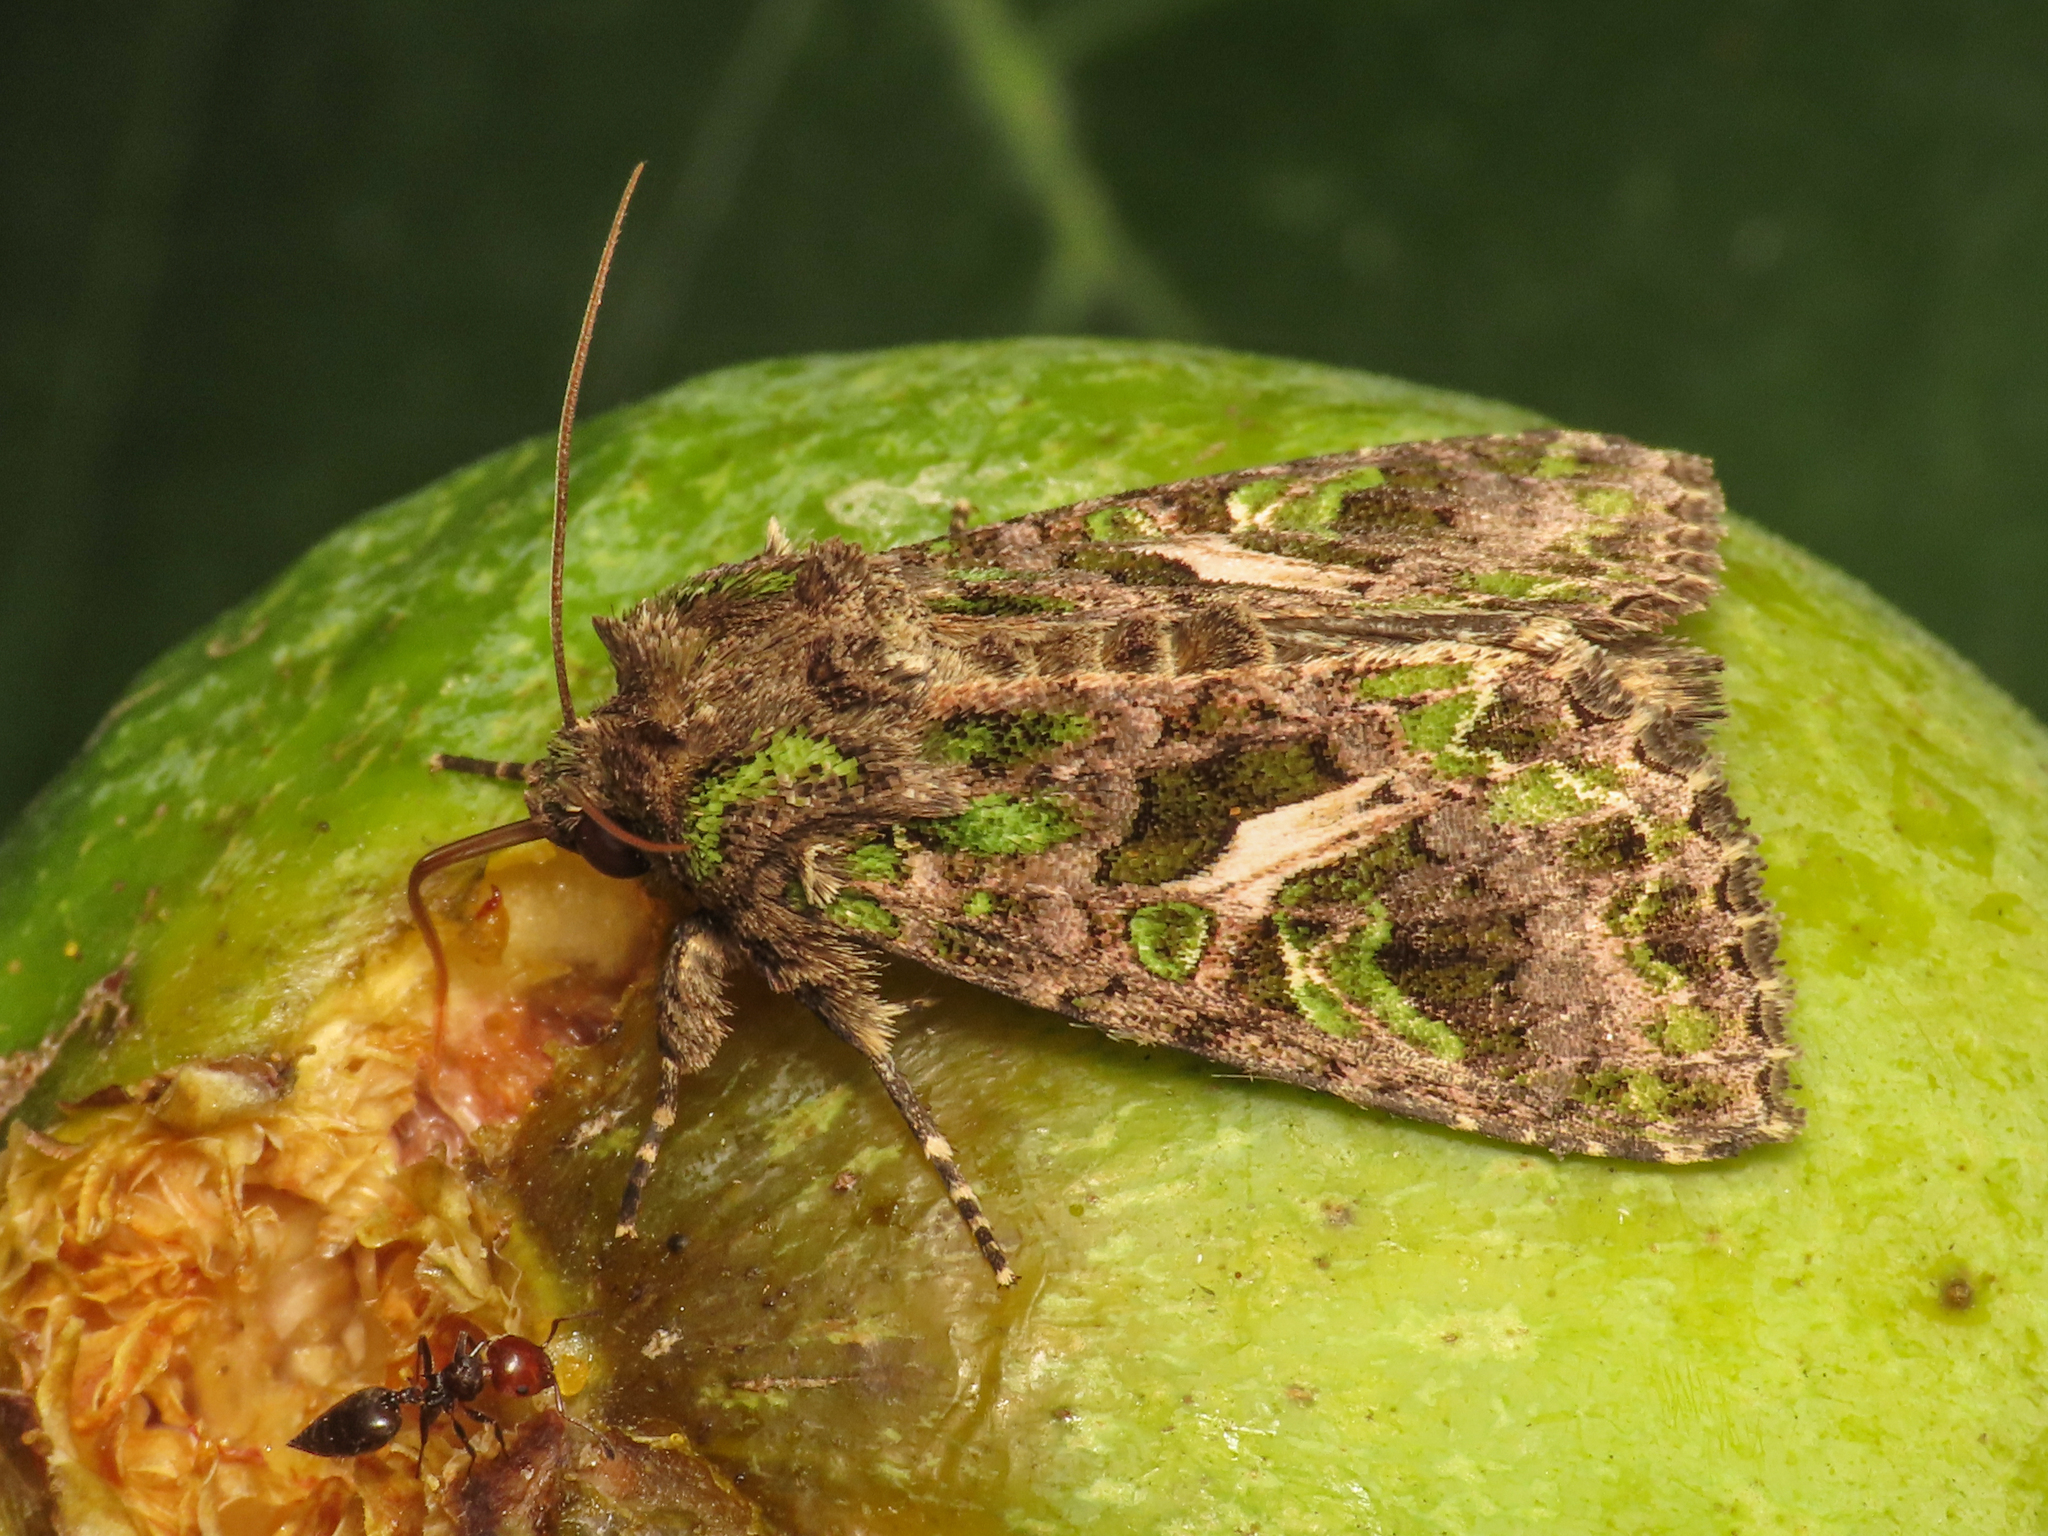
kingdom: Animalia
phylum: Arthropoda
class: Insecta
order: Lepidoptera
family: Noctuidae
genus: Trachea
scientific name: Trachea atriplicis
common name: Orache moth
